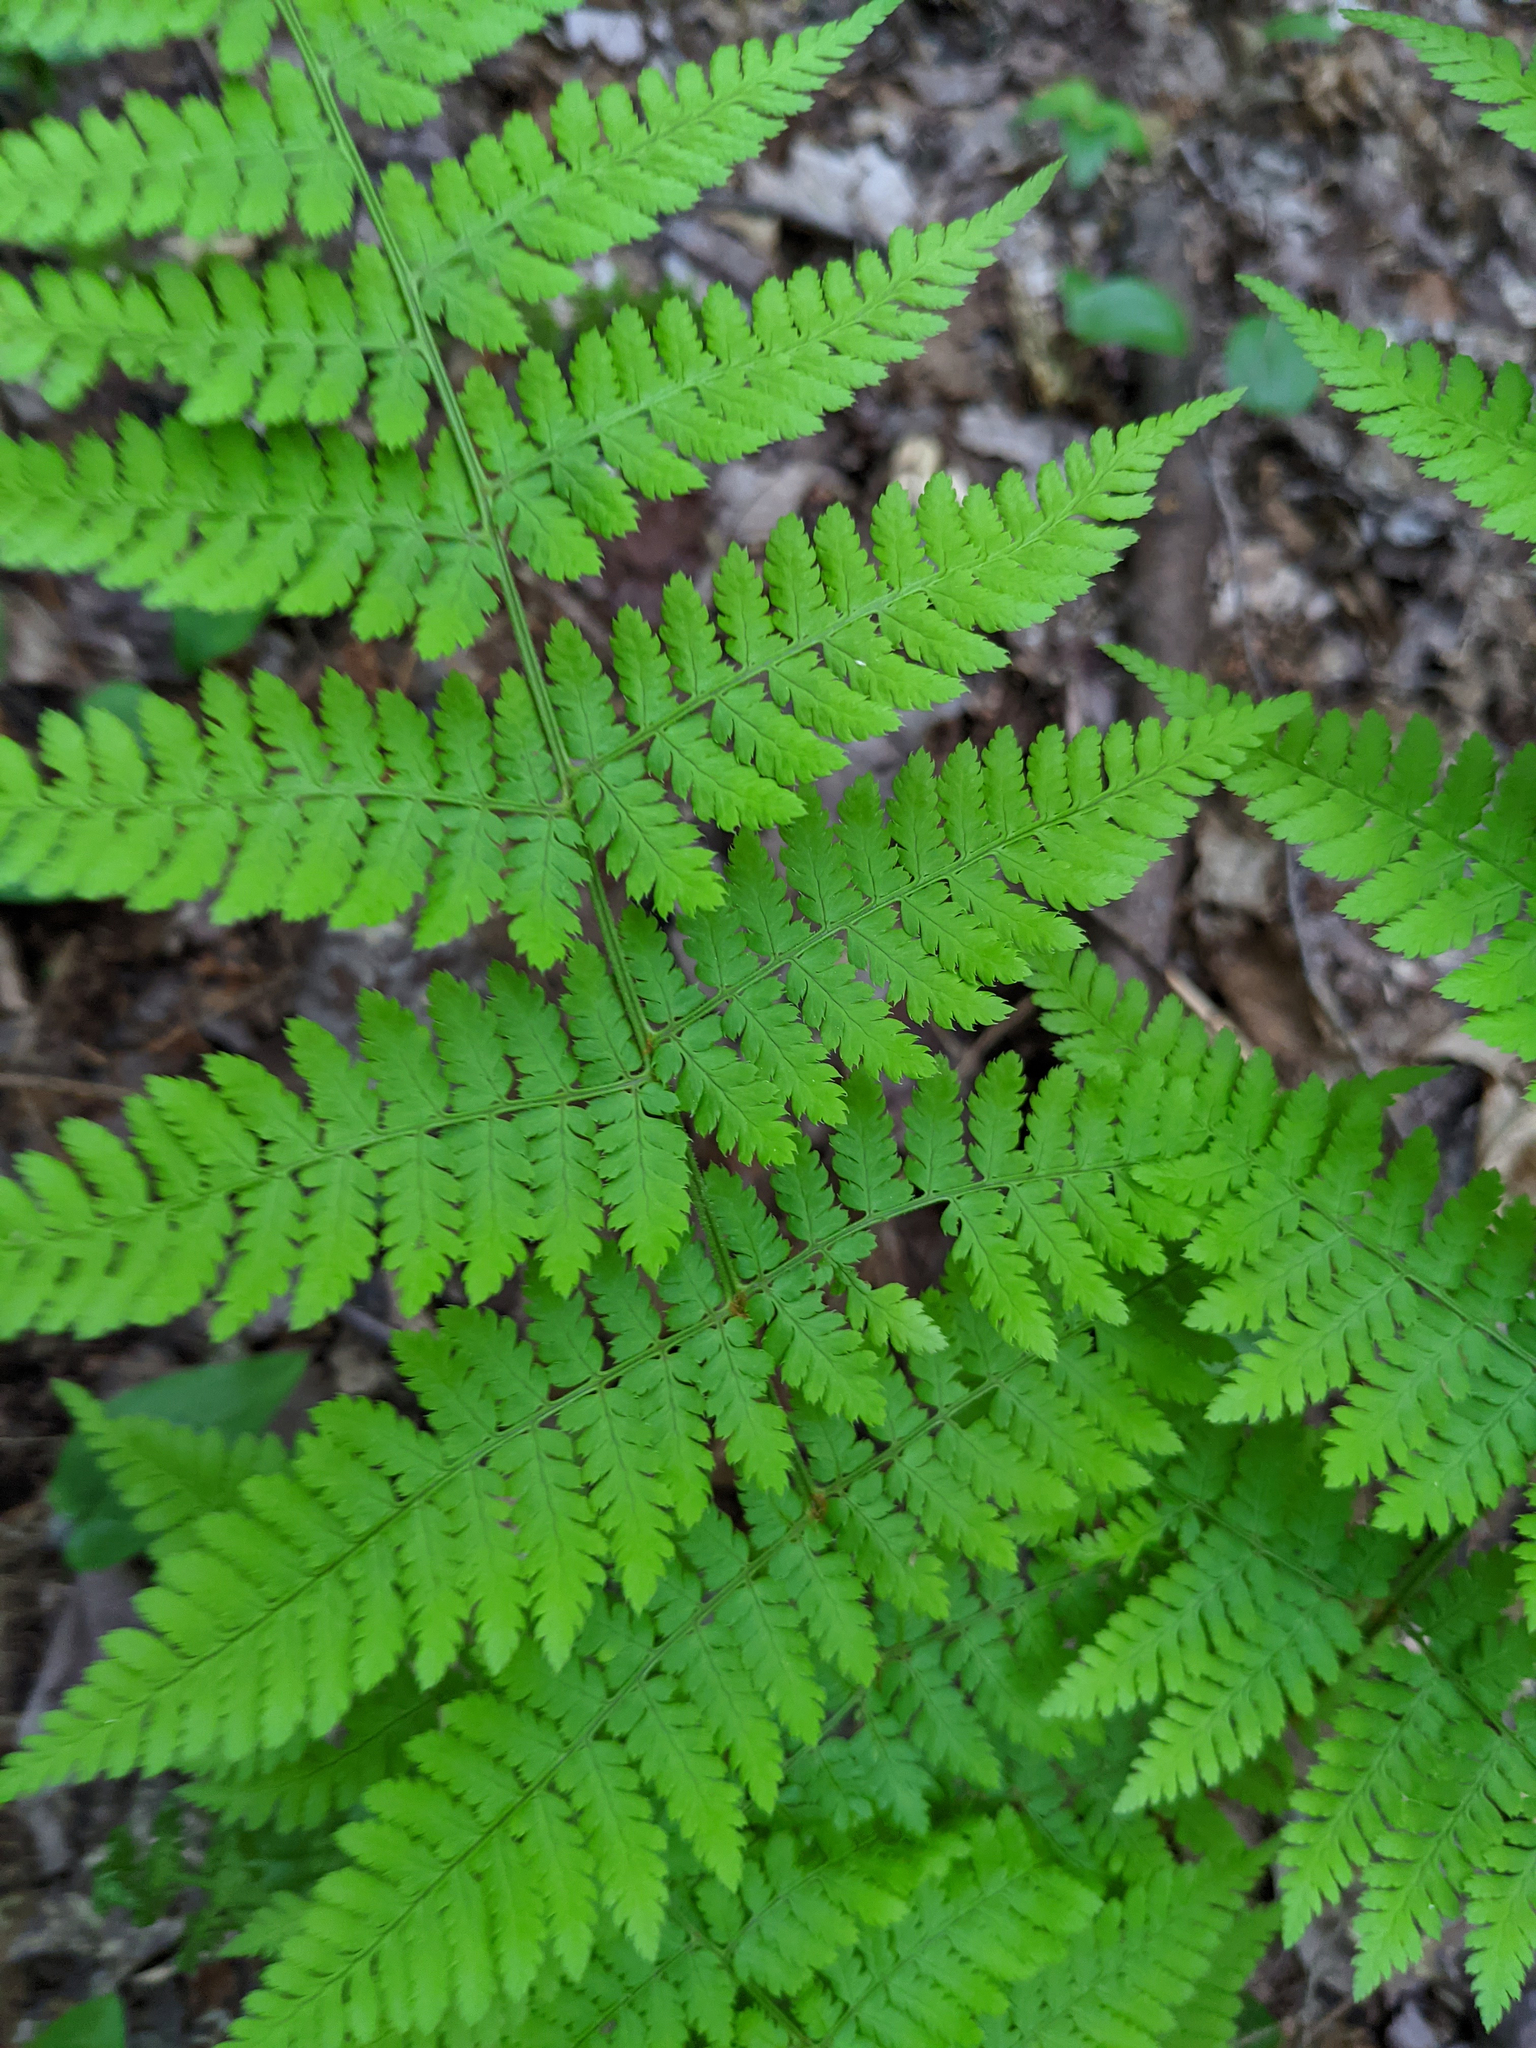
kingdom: Plantae
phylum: Tracheophyta
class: Polypodiopsida
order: Polypodiales
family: Dryopteridaceae
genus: Dryopteris
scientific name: Dryopteris intermedia
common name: Evergreen wood fern
